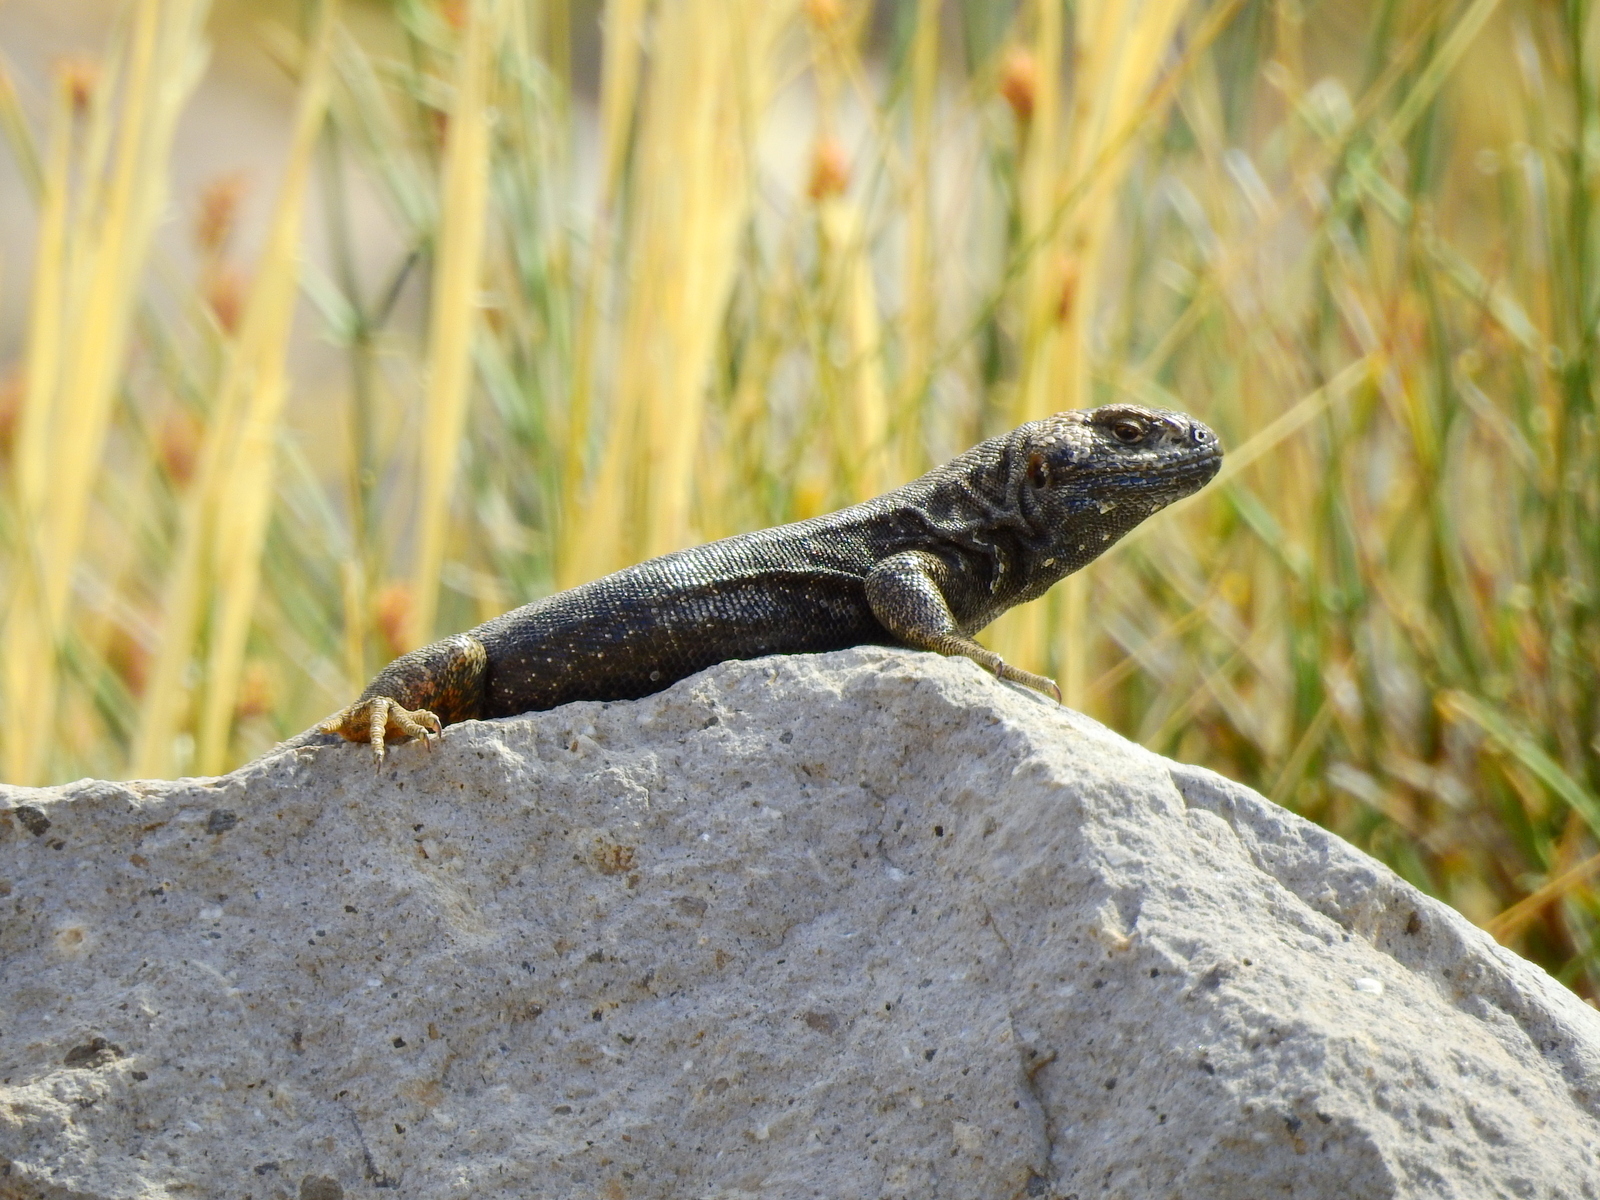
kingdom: Animalia
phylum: Chordata
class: Squamata
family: Liolaemidae
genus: Liolaemus
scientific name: Liolaemus buergeri
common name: Buerger's tree iguana
